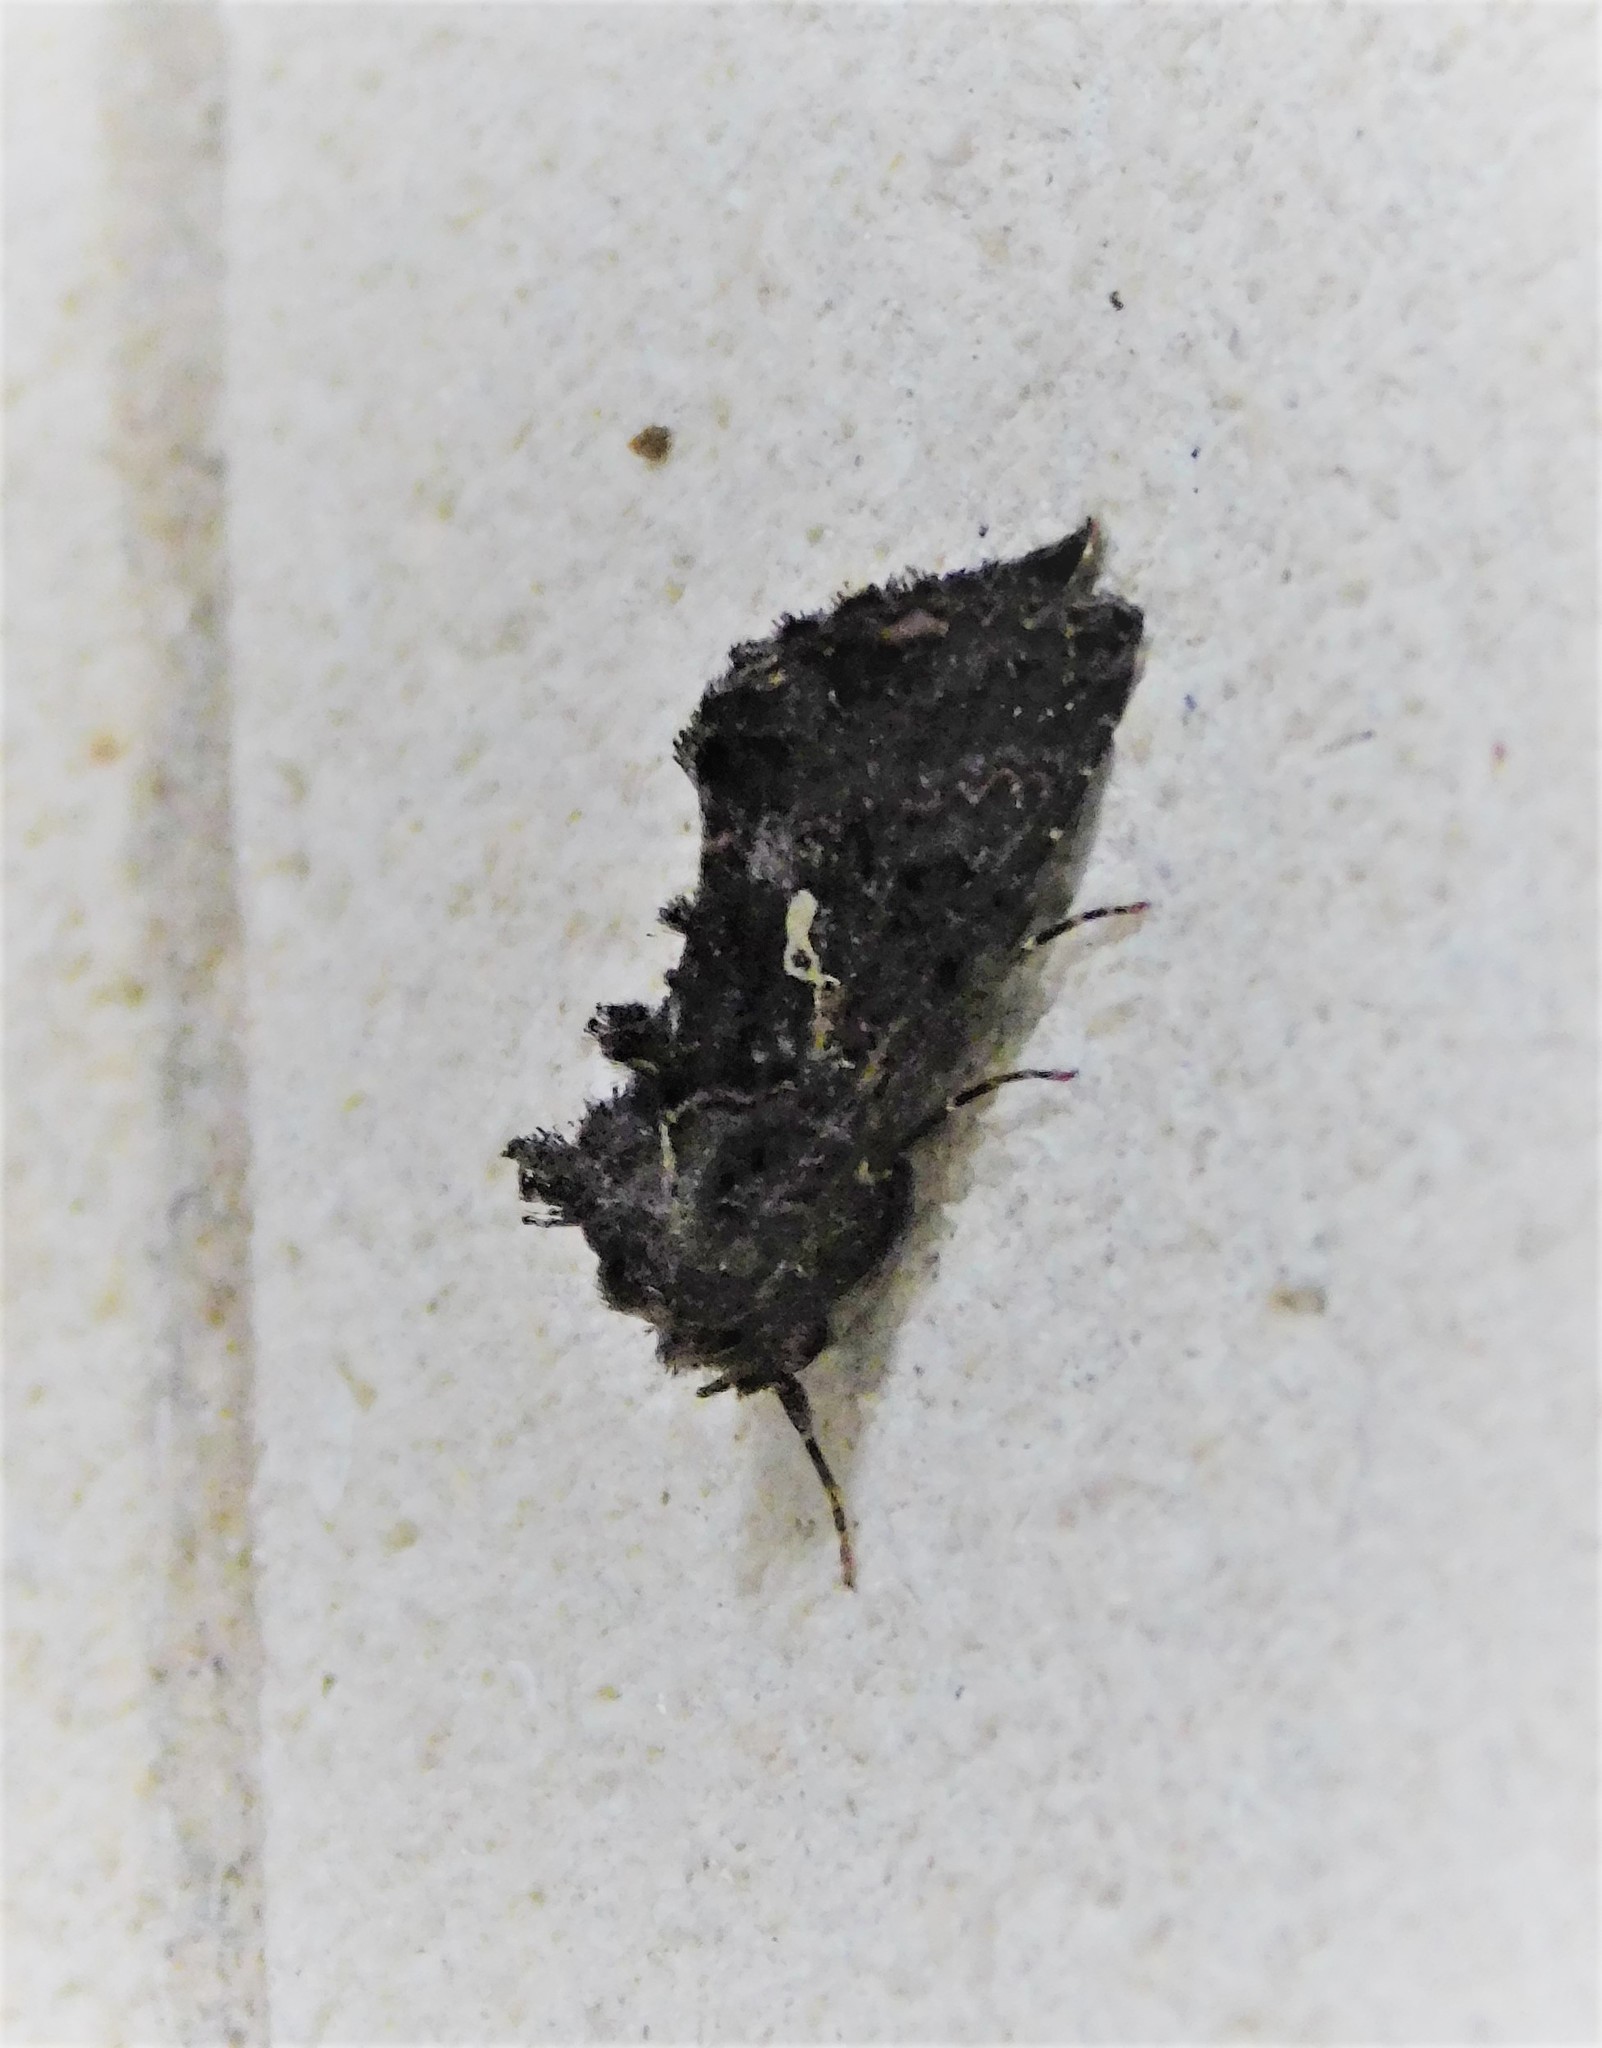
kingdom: Animalia
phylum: Arthropoda
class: Insecta
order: Lepidoptera
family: Noctuidae
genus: Ctenoplusia
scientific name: Ctenoplusia limbirena
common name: Scar bank gem
